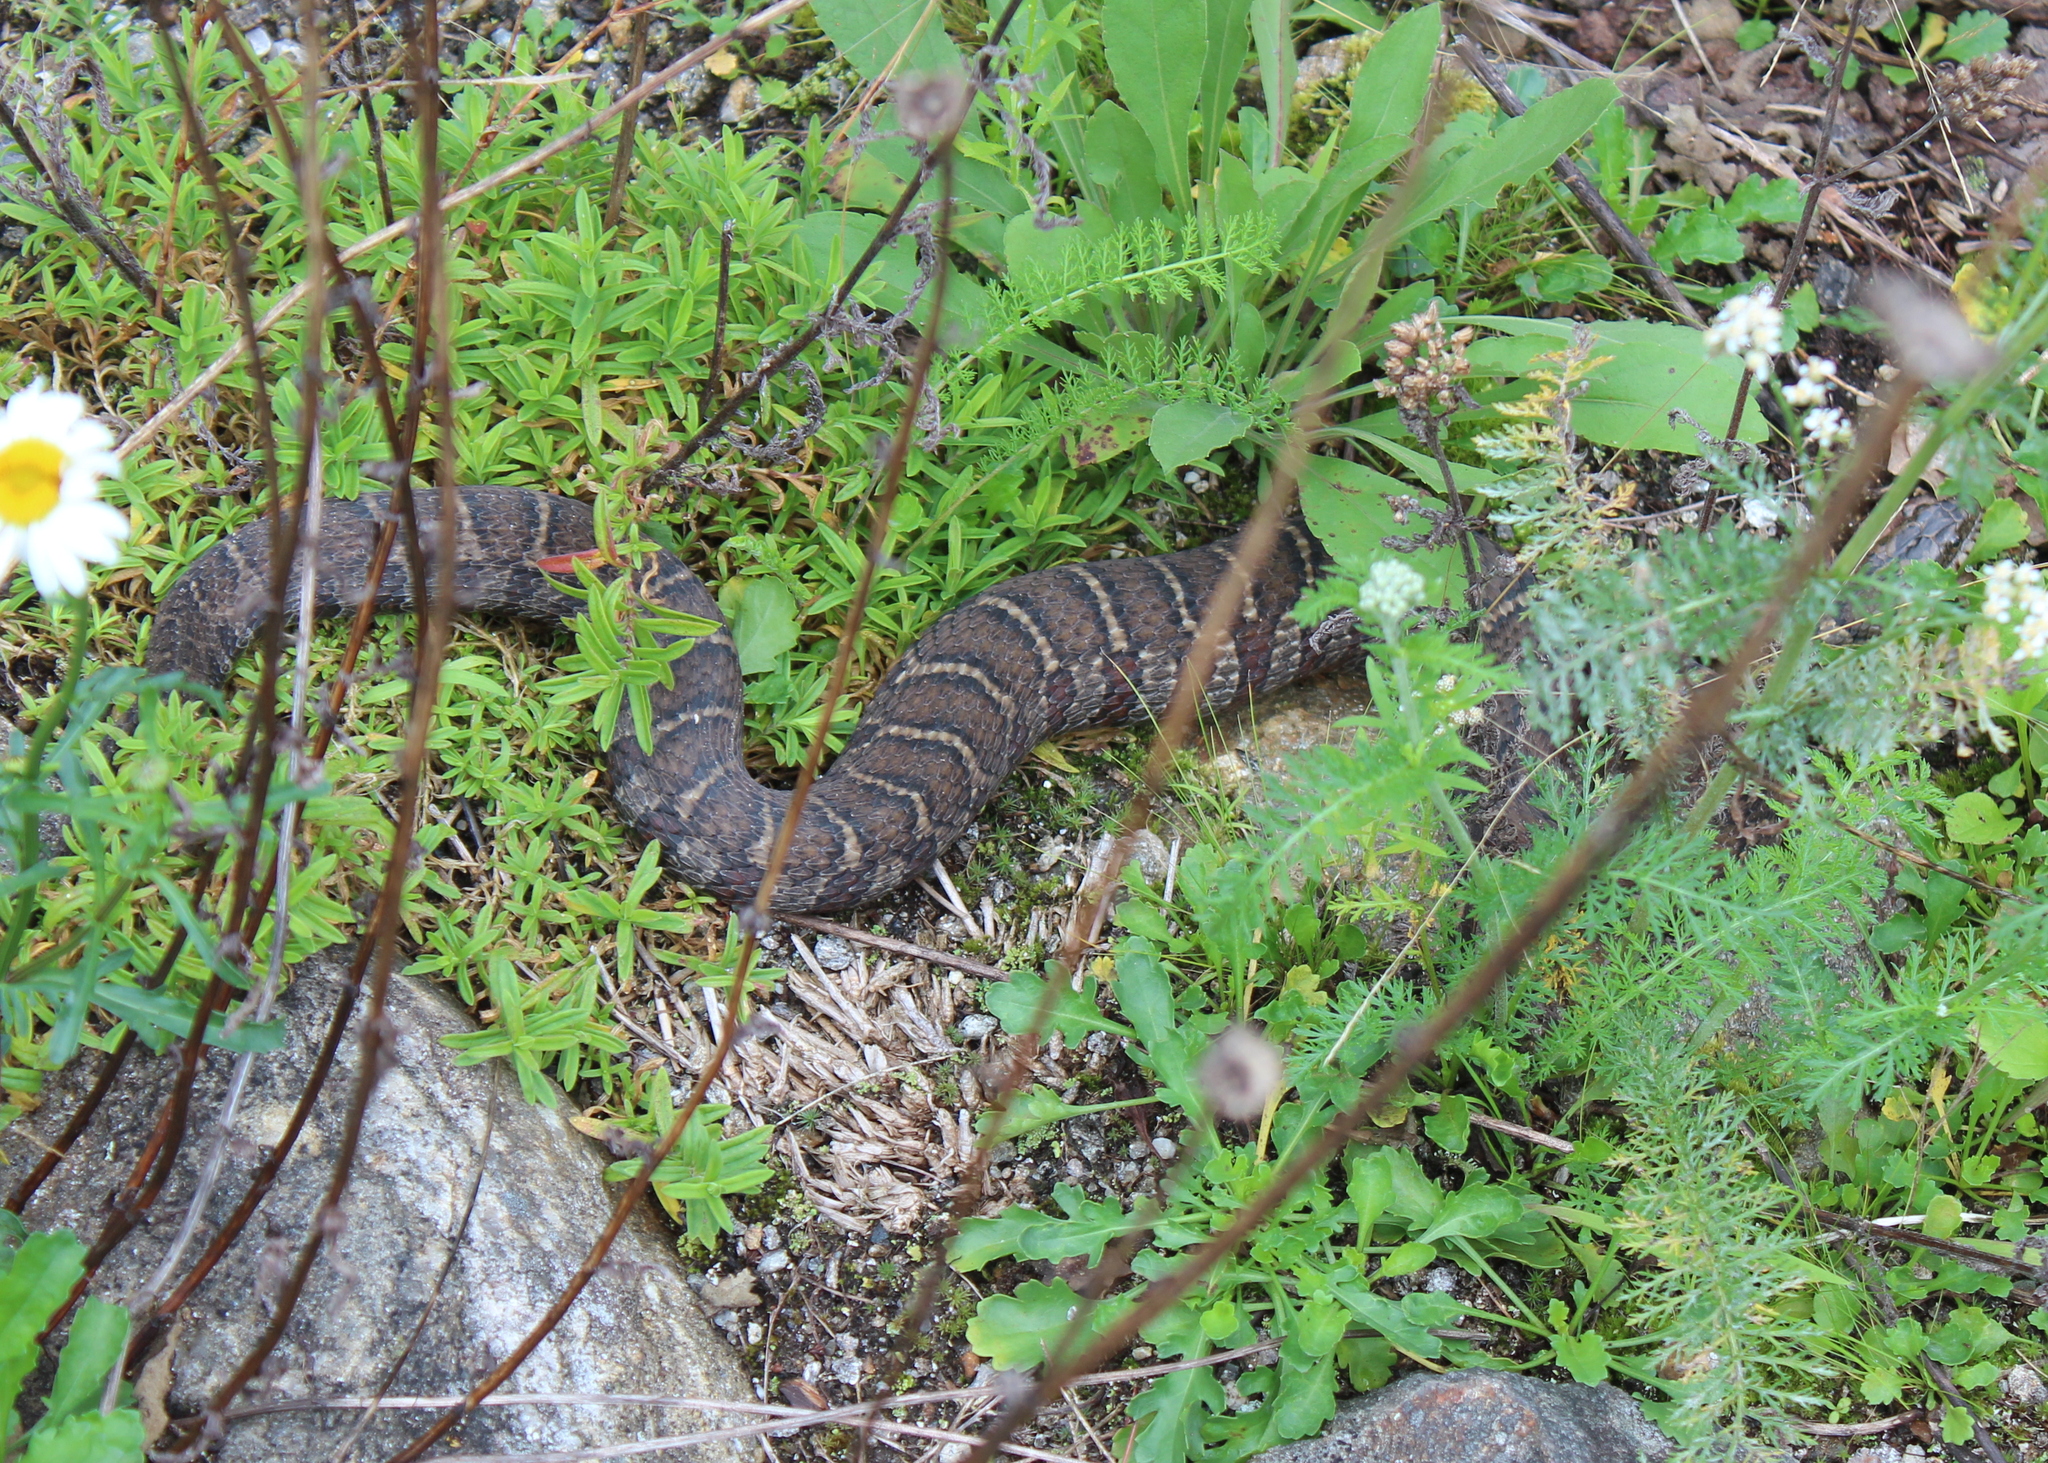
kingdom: Animalia
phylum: Chordata
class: Squamata
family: Colubridae
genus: Nerodia
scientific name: Nerodia sipedon
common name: Northern water snake
